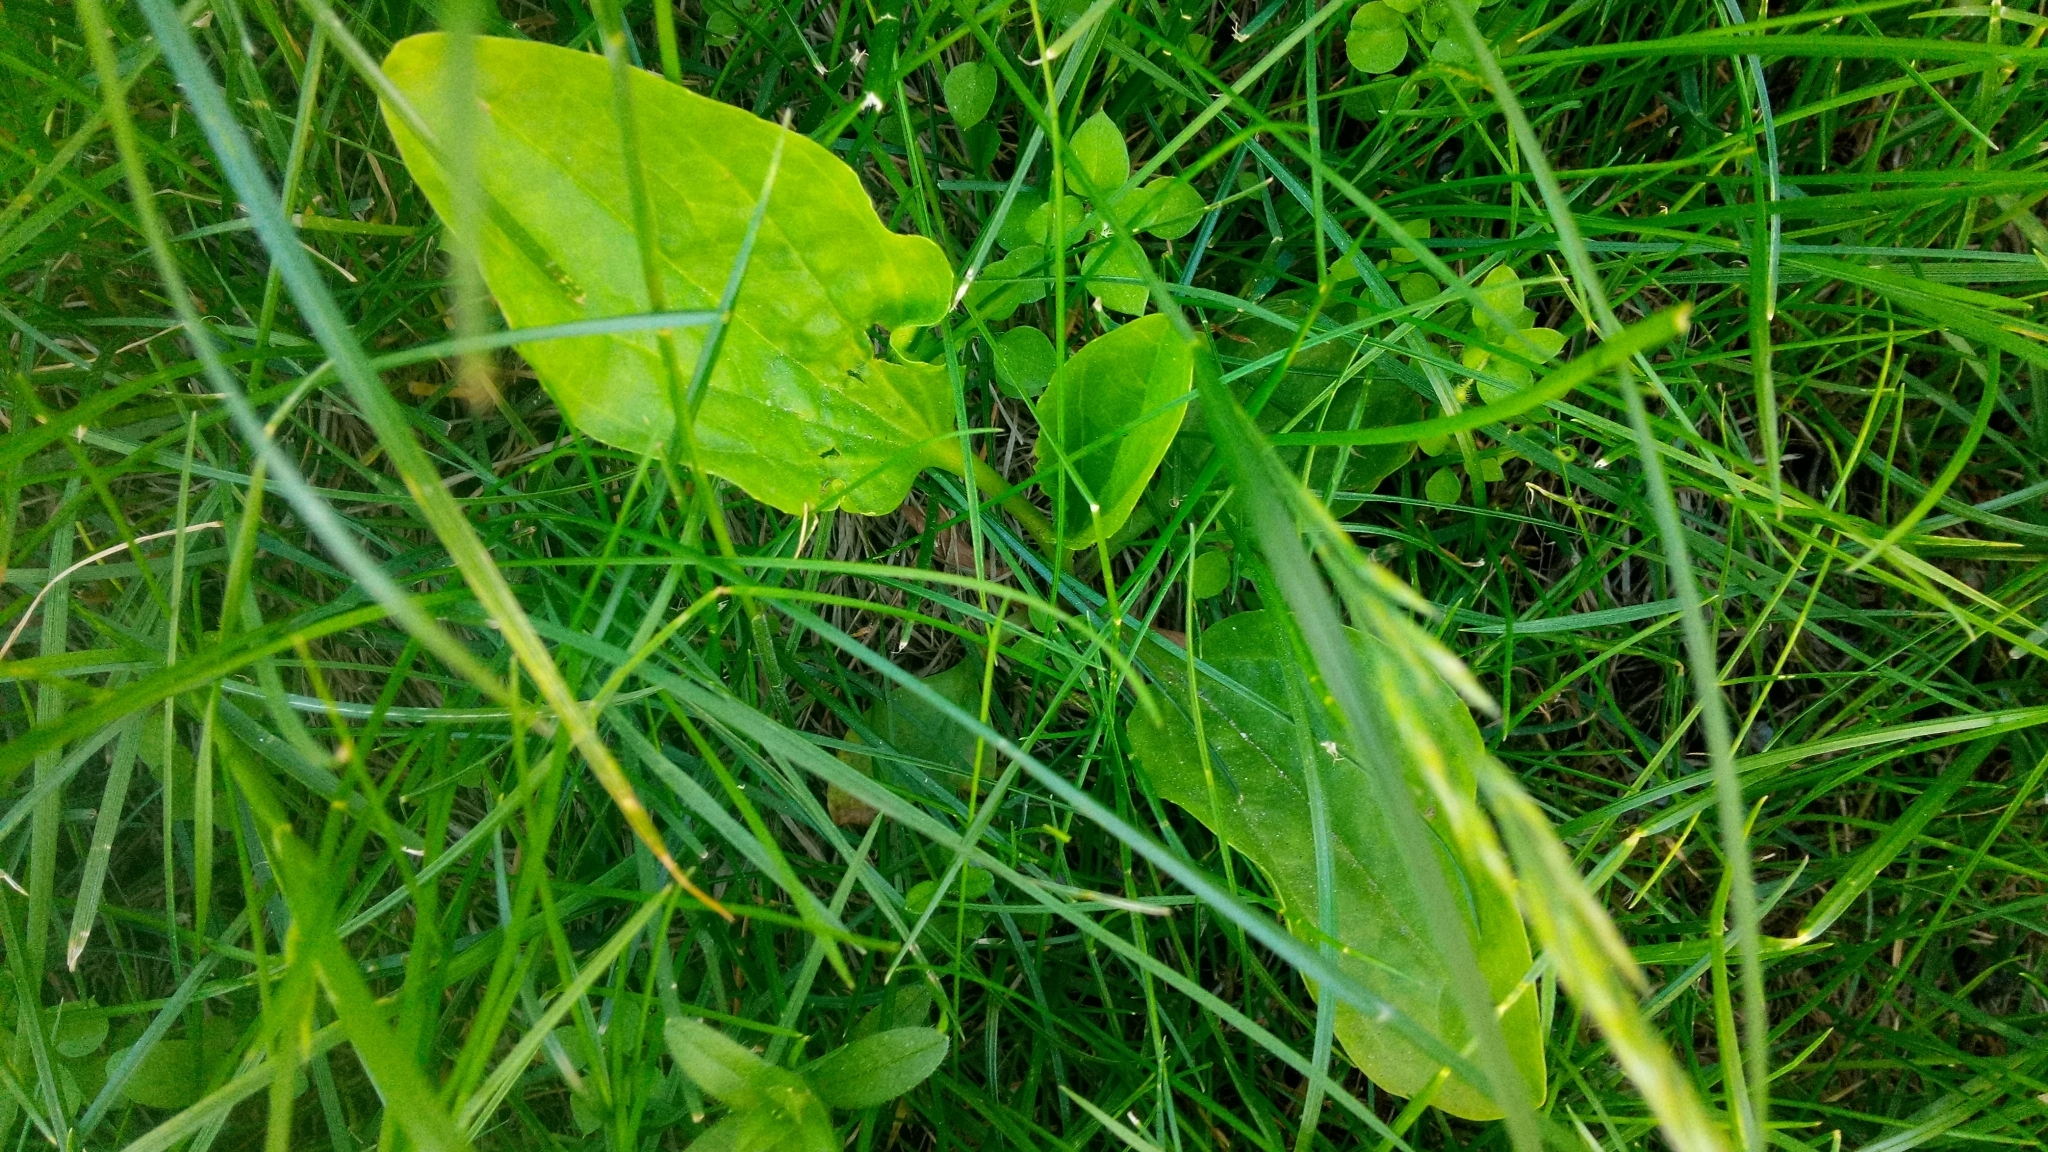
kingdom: Plantae
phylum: Tracheophyta
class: Magnoliopsida
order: Lamiales
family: Plantaginaceae
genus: Plantago
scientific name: Plantago major
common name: Common plantain
